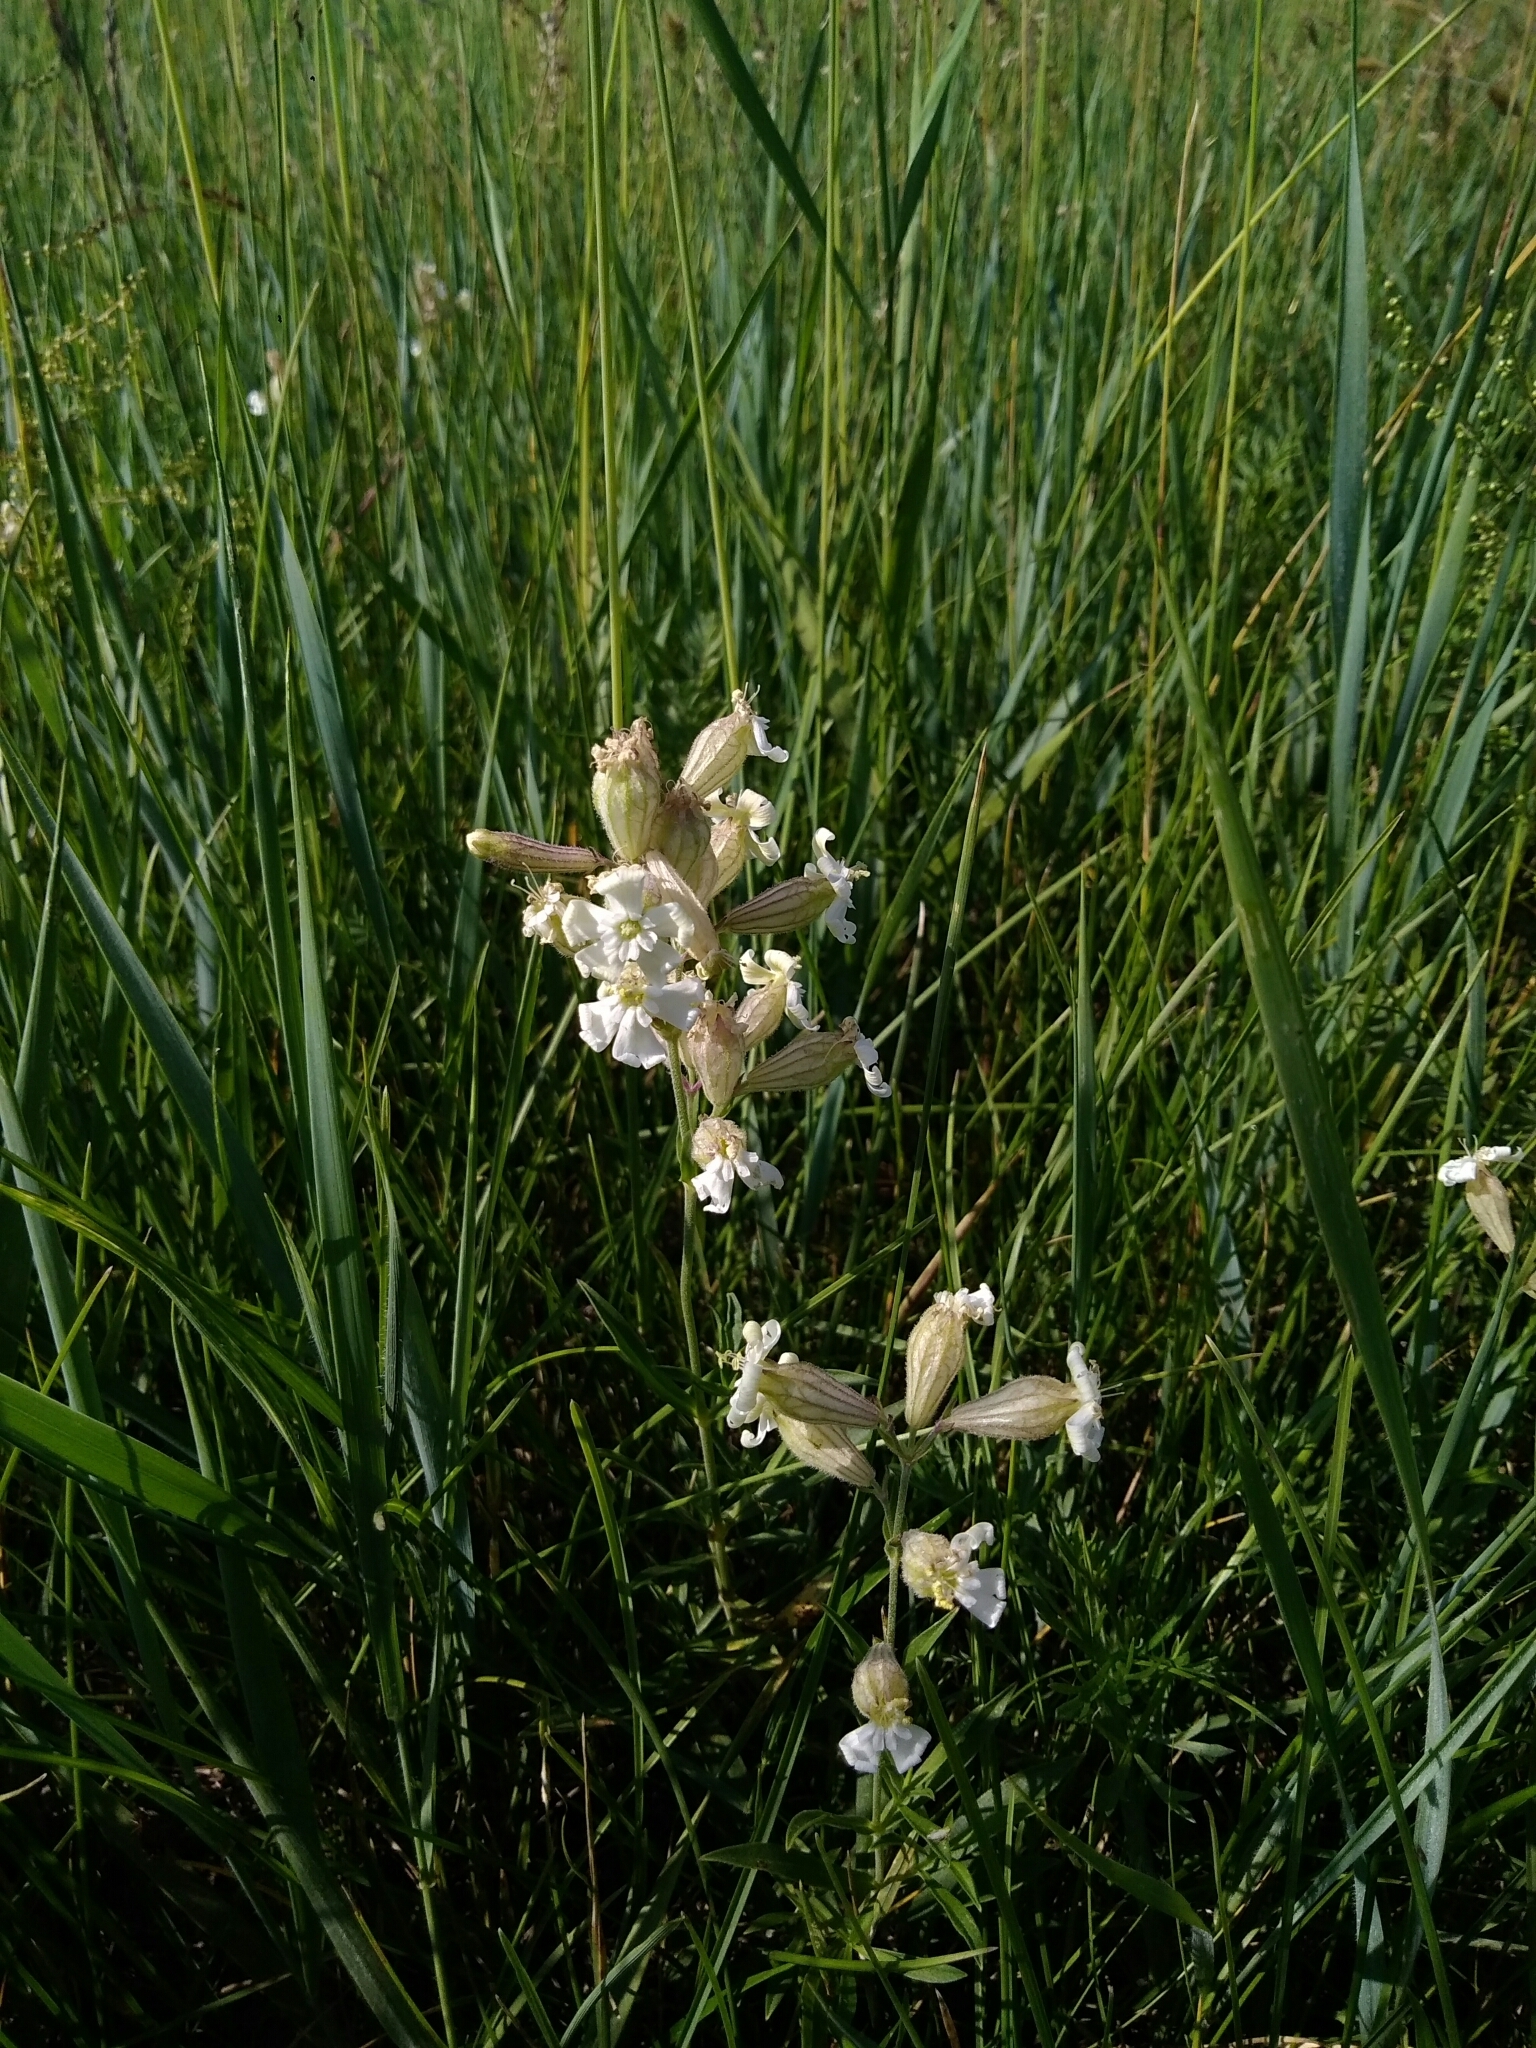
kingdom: Plantae
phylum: Tracheophyta
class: Magnoliopsida
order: Caryophyllales
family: Caryophyllaceae
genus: Silene
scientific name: Silene amoena
